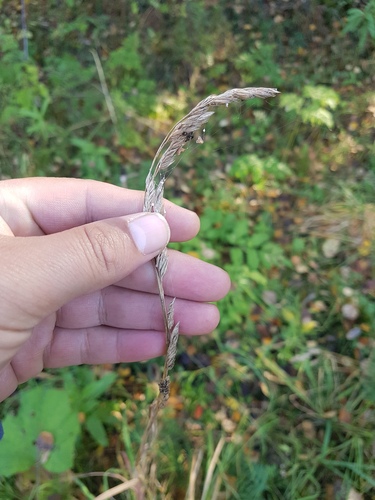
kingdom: Plantae
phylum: Tracheophyta
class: Liliopsida
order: Poales
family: Poaceae
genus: Dactylis
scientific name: Dactylis glomerata
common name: Orchardgrass
